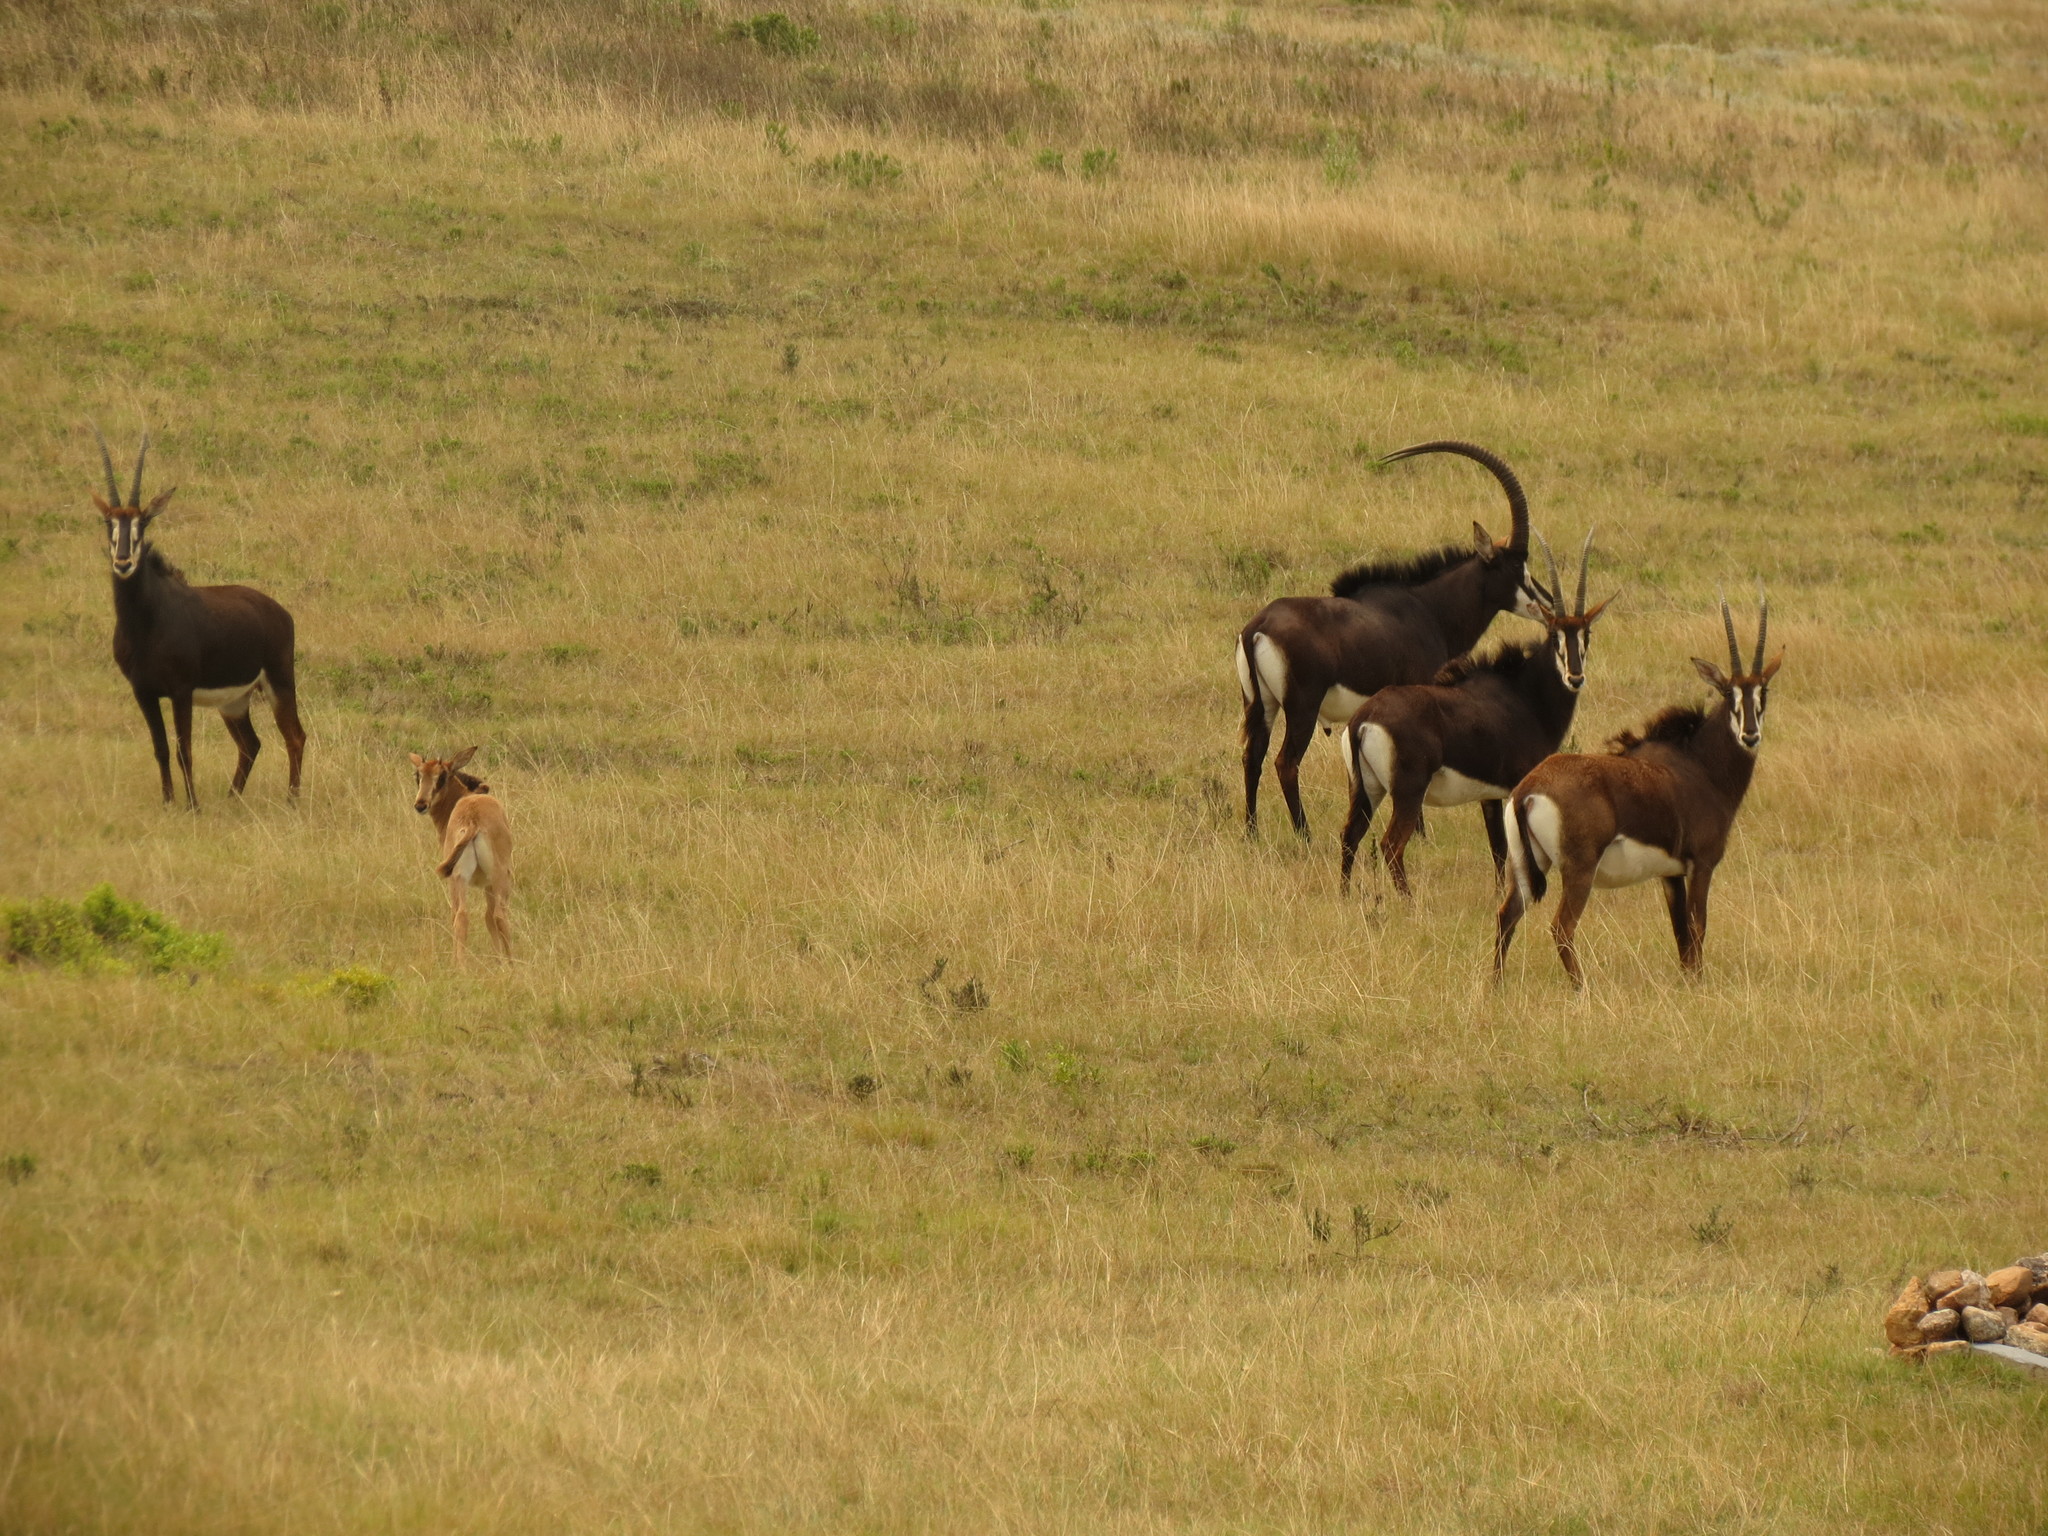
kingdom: Animalia
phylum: Chordata
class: Mammalia
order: Artiodactyla
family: Bovidae
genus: Hippotragus
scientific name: Hippotragus niger
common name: Sable antelope
